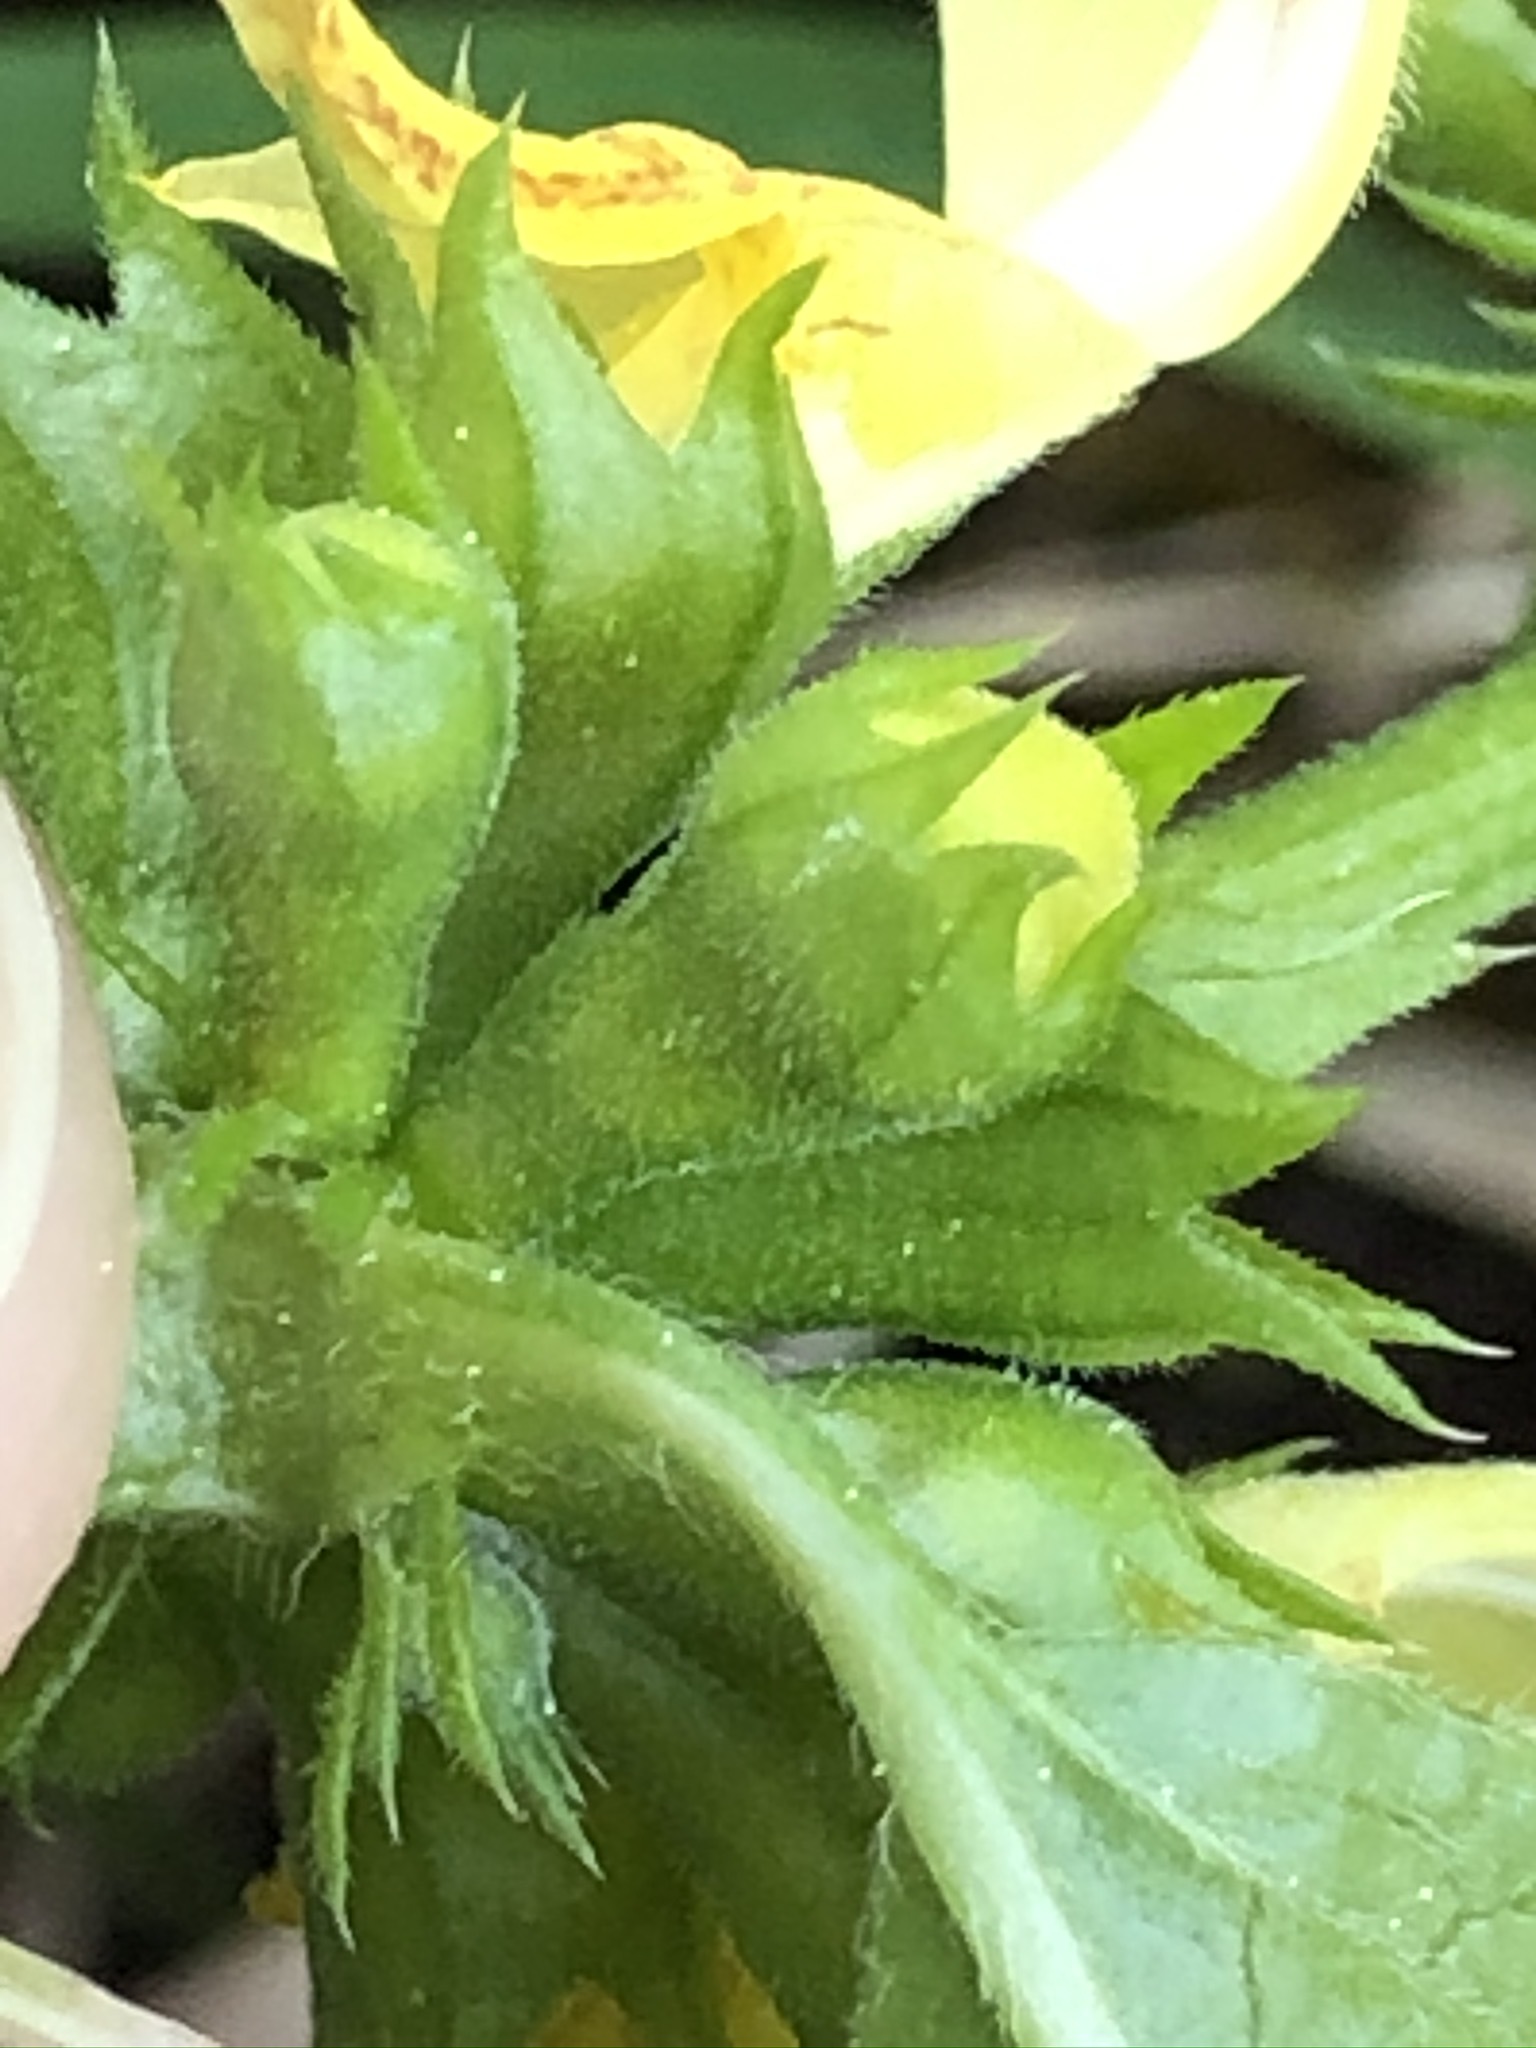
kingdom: Plantae
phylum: Tracheophyta
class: Magnoliopsida
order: Lamiales
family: Lamiaceae
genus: Lamium
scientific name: Lamium galeobdolon
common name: Yellow archangel
